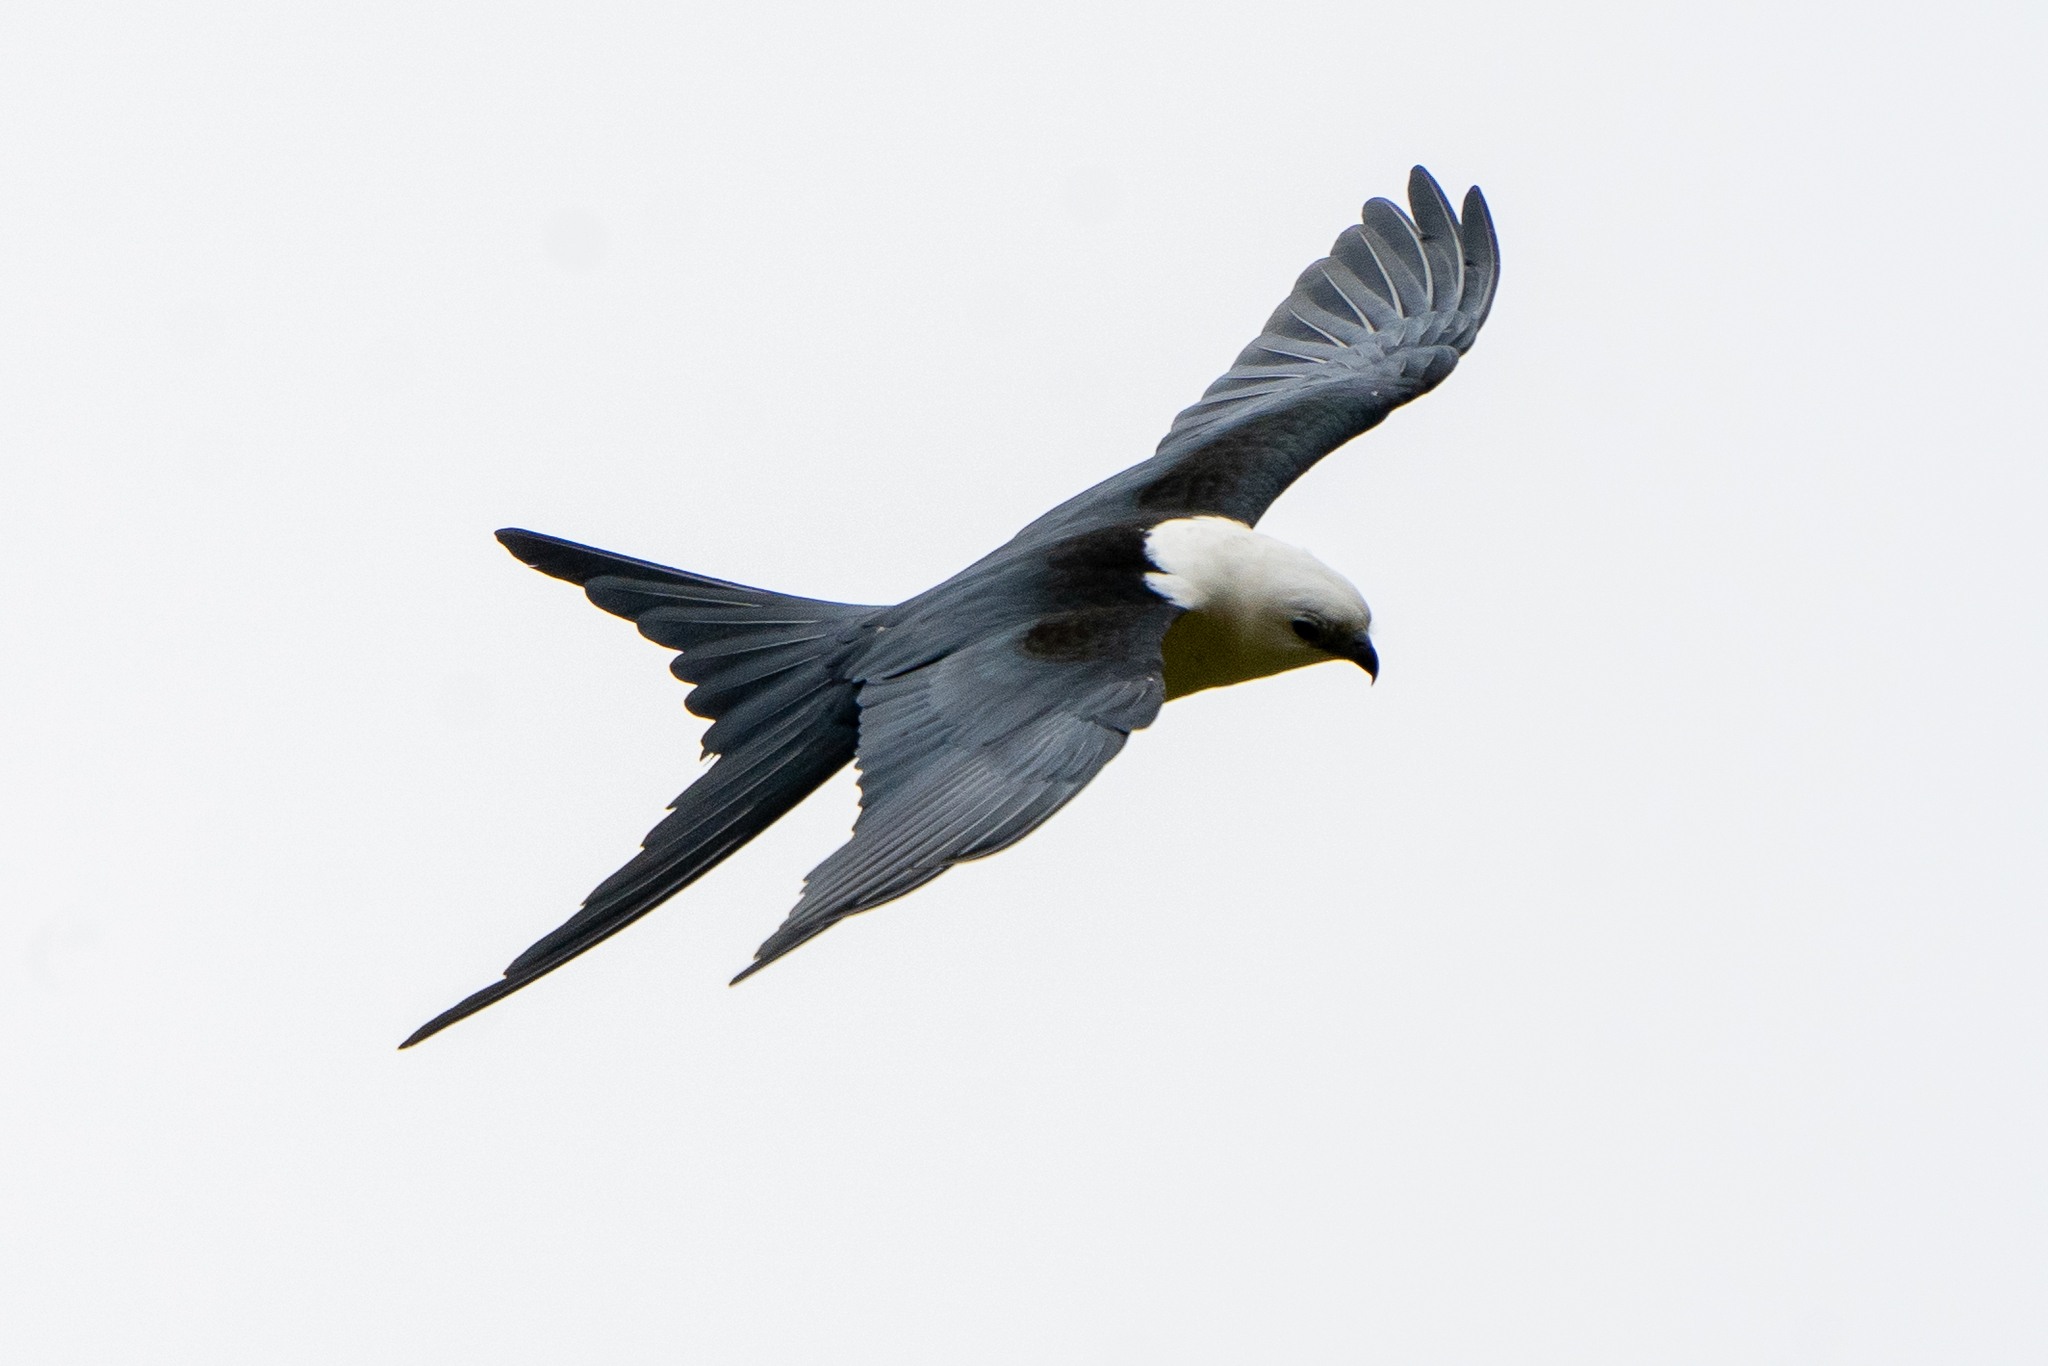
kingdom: Animalia
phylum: Chordata
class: Aves
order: Accipitriformes
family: Accipitridae
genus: Elanoides
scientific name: Elanoides forficatus
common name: Swallow-tailed kite
